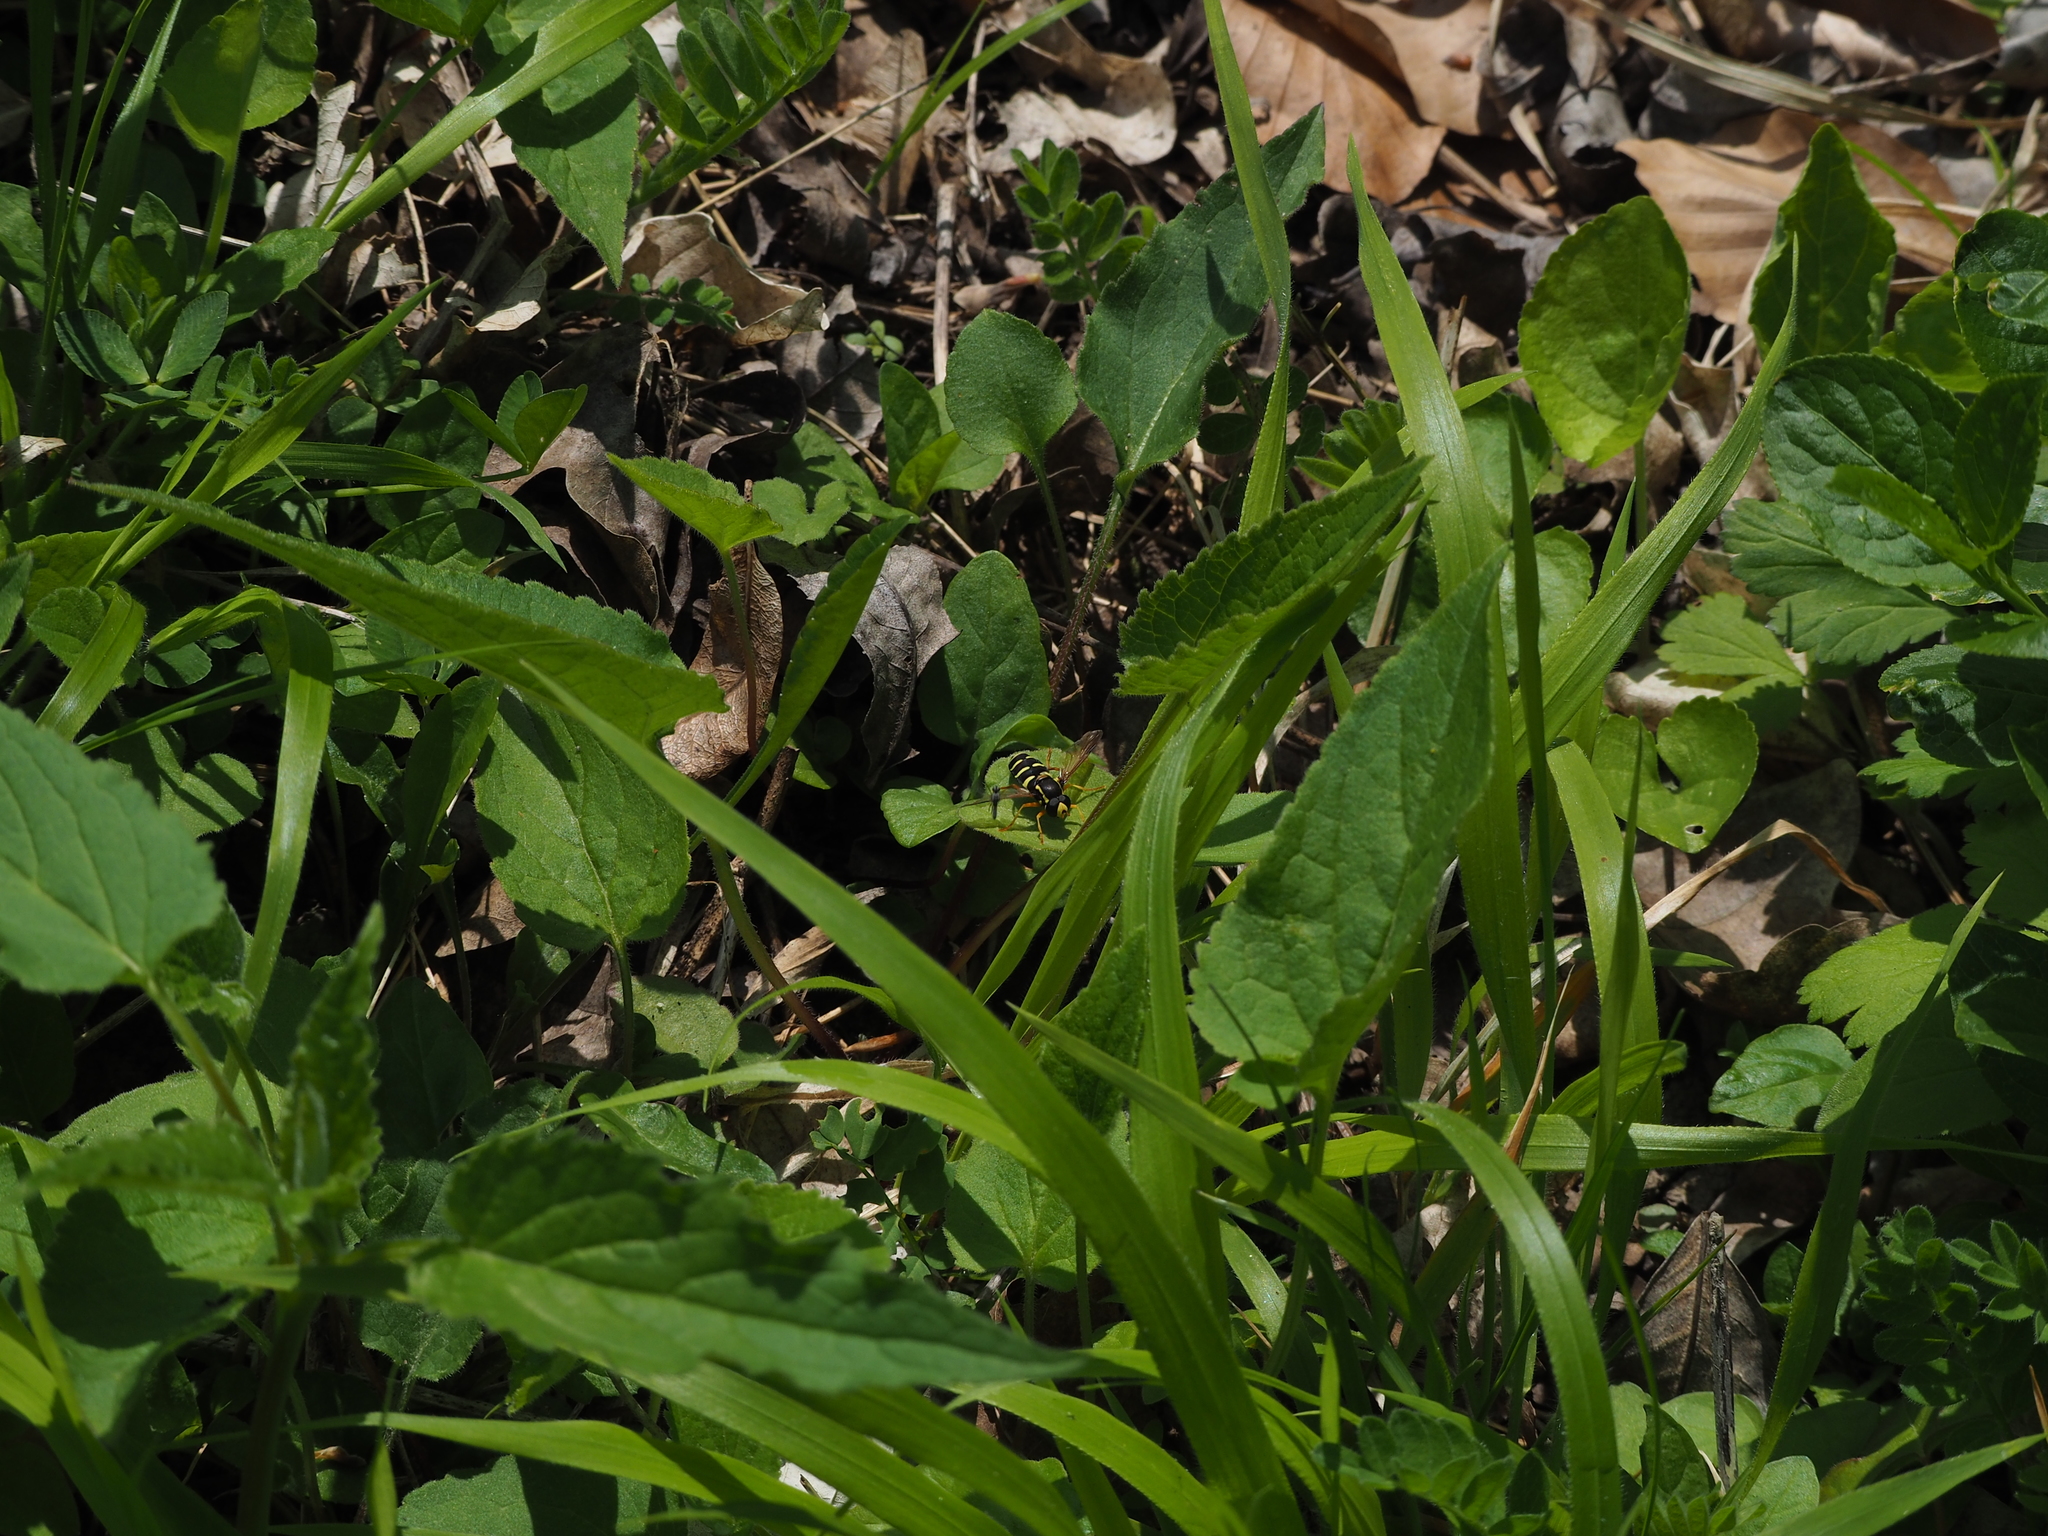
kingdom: Plantae
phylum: Tracheophyta
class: Magnoliopsida
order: Asterales
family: Campanulaceae
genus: Campanula
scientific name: Campanula rapunculoides
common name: Creeping bellflower
